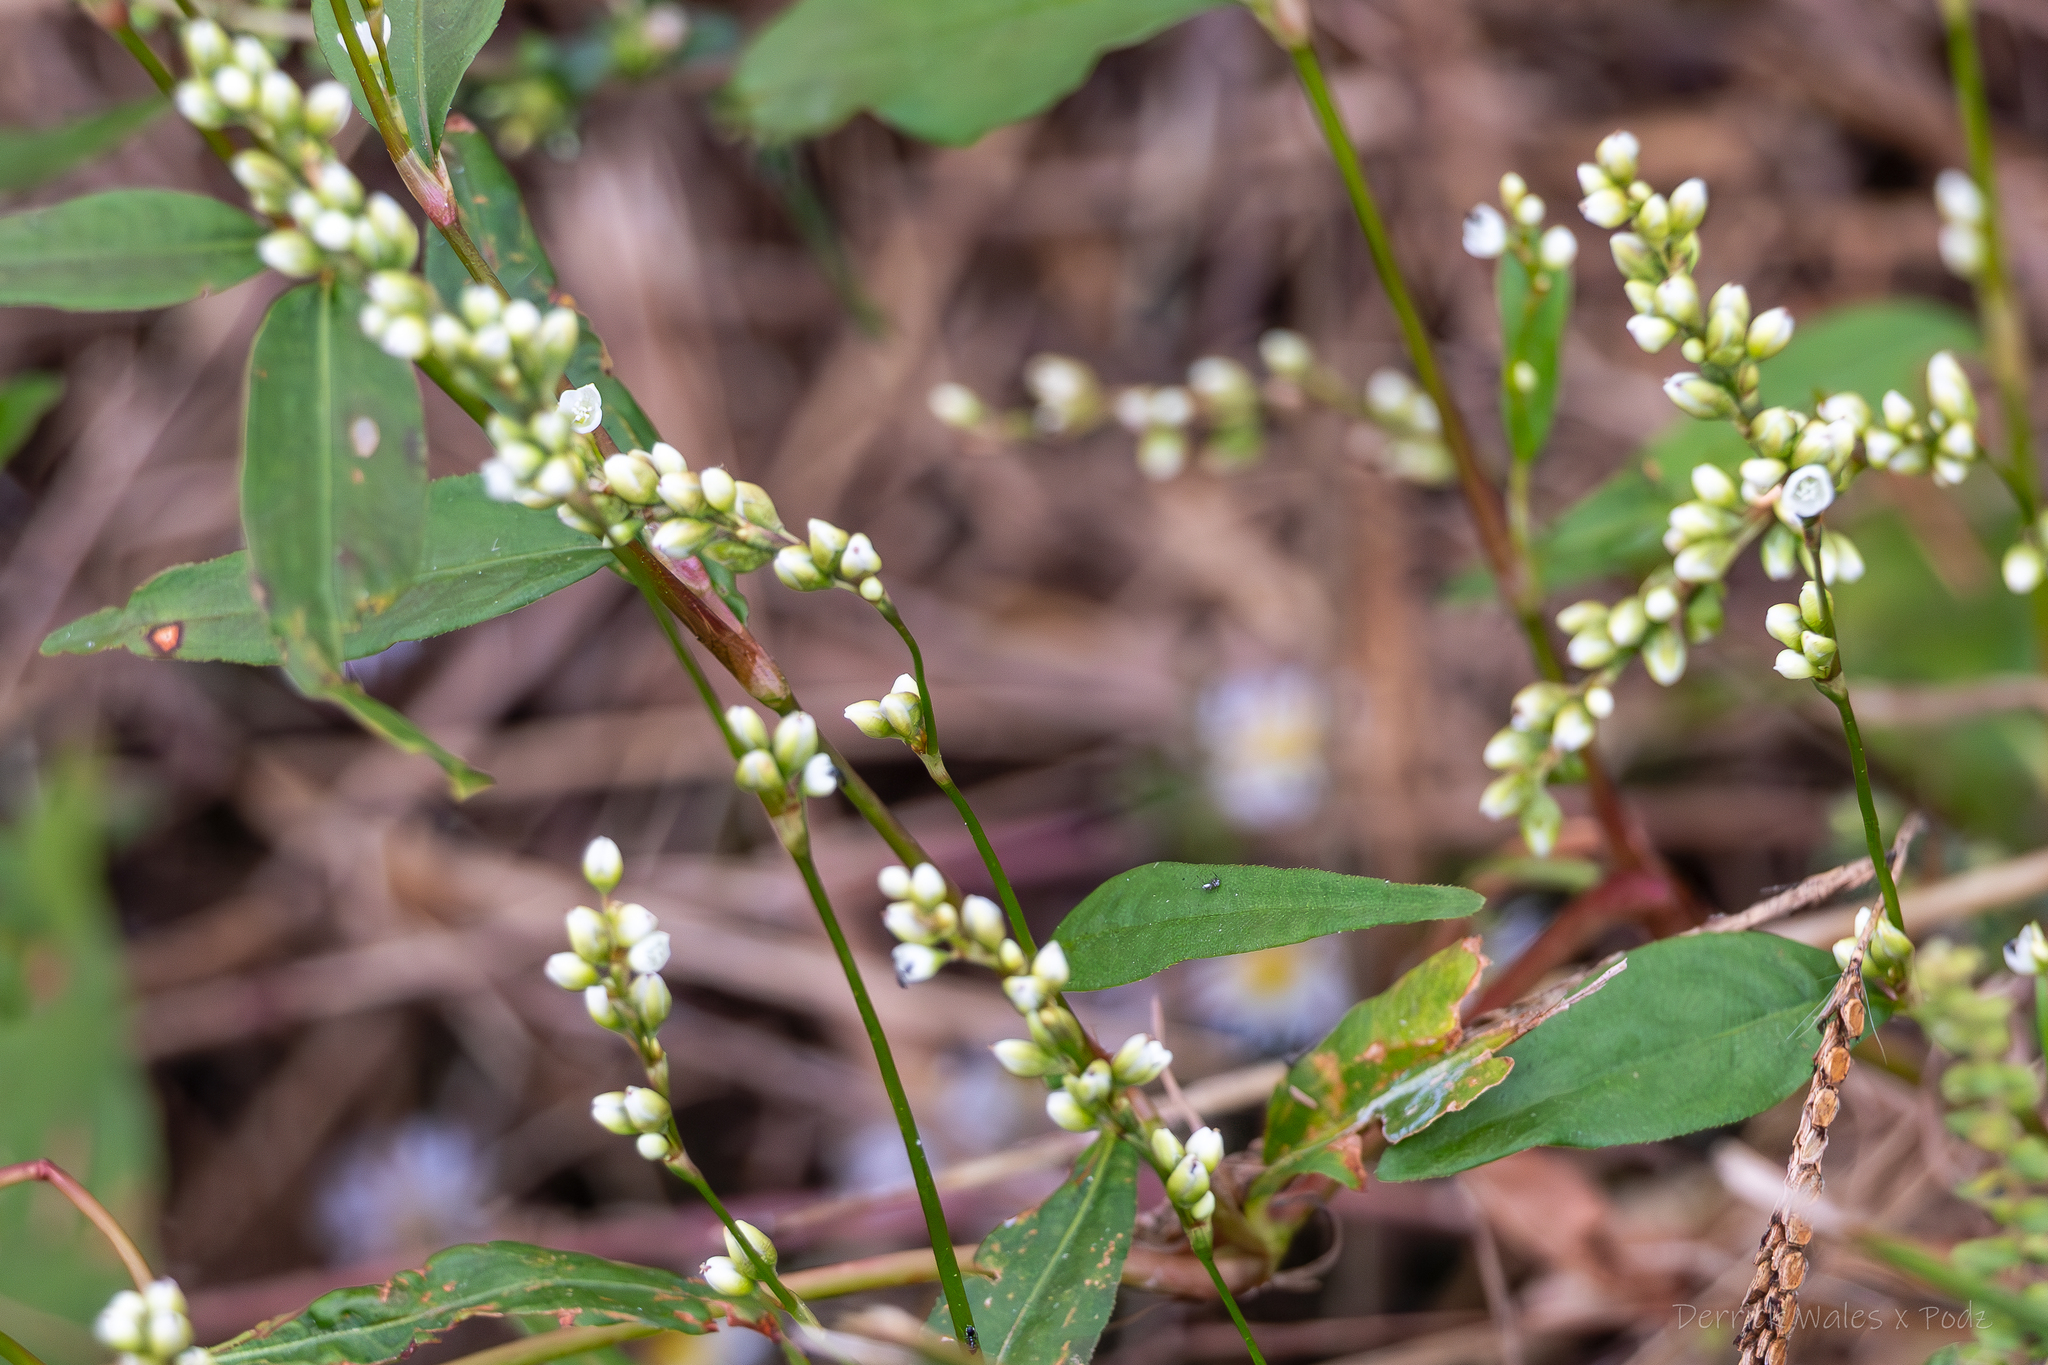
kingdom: Plantae
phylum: Tracheophyta
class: Magnoliopsida
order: Caryophyllales
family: Polygonaceae
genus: Persicaria
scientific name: Persicaria punctata
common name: Dotted smartweed
